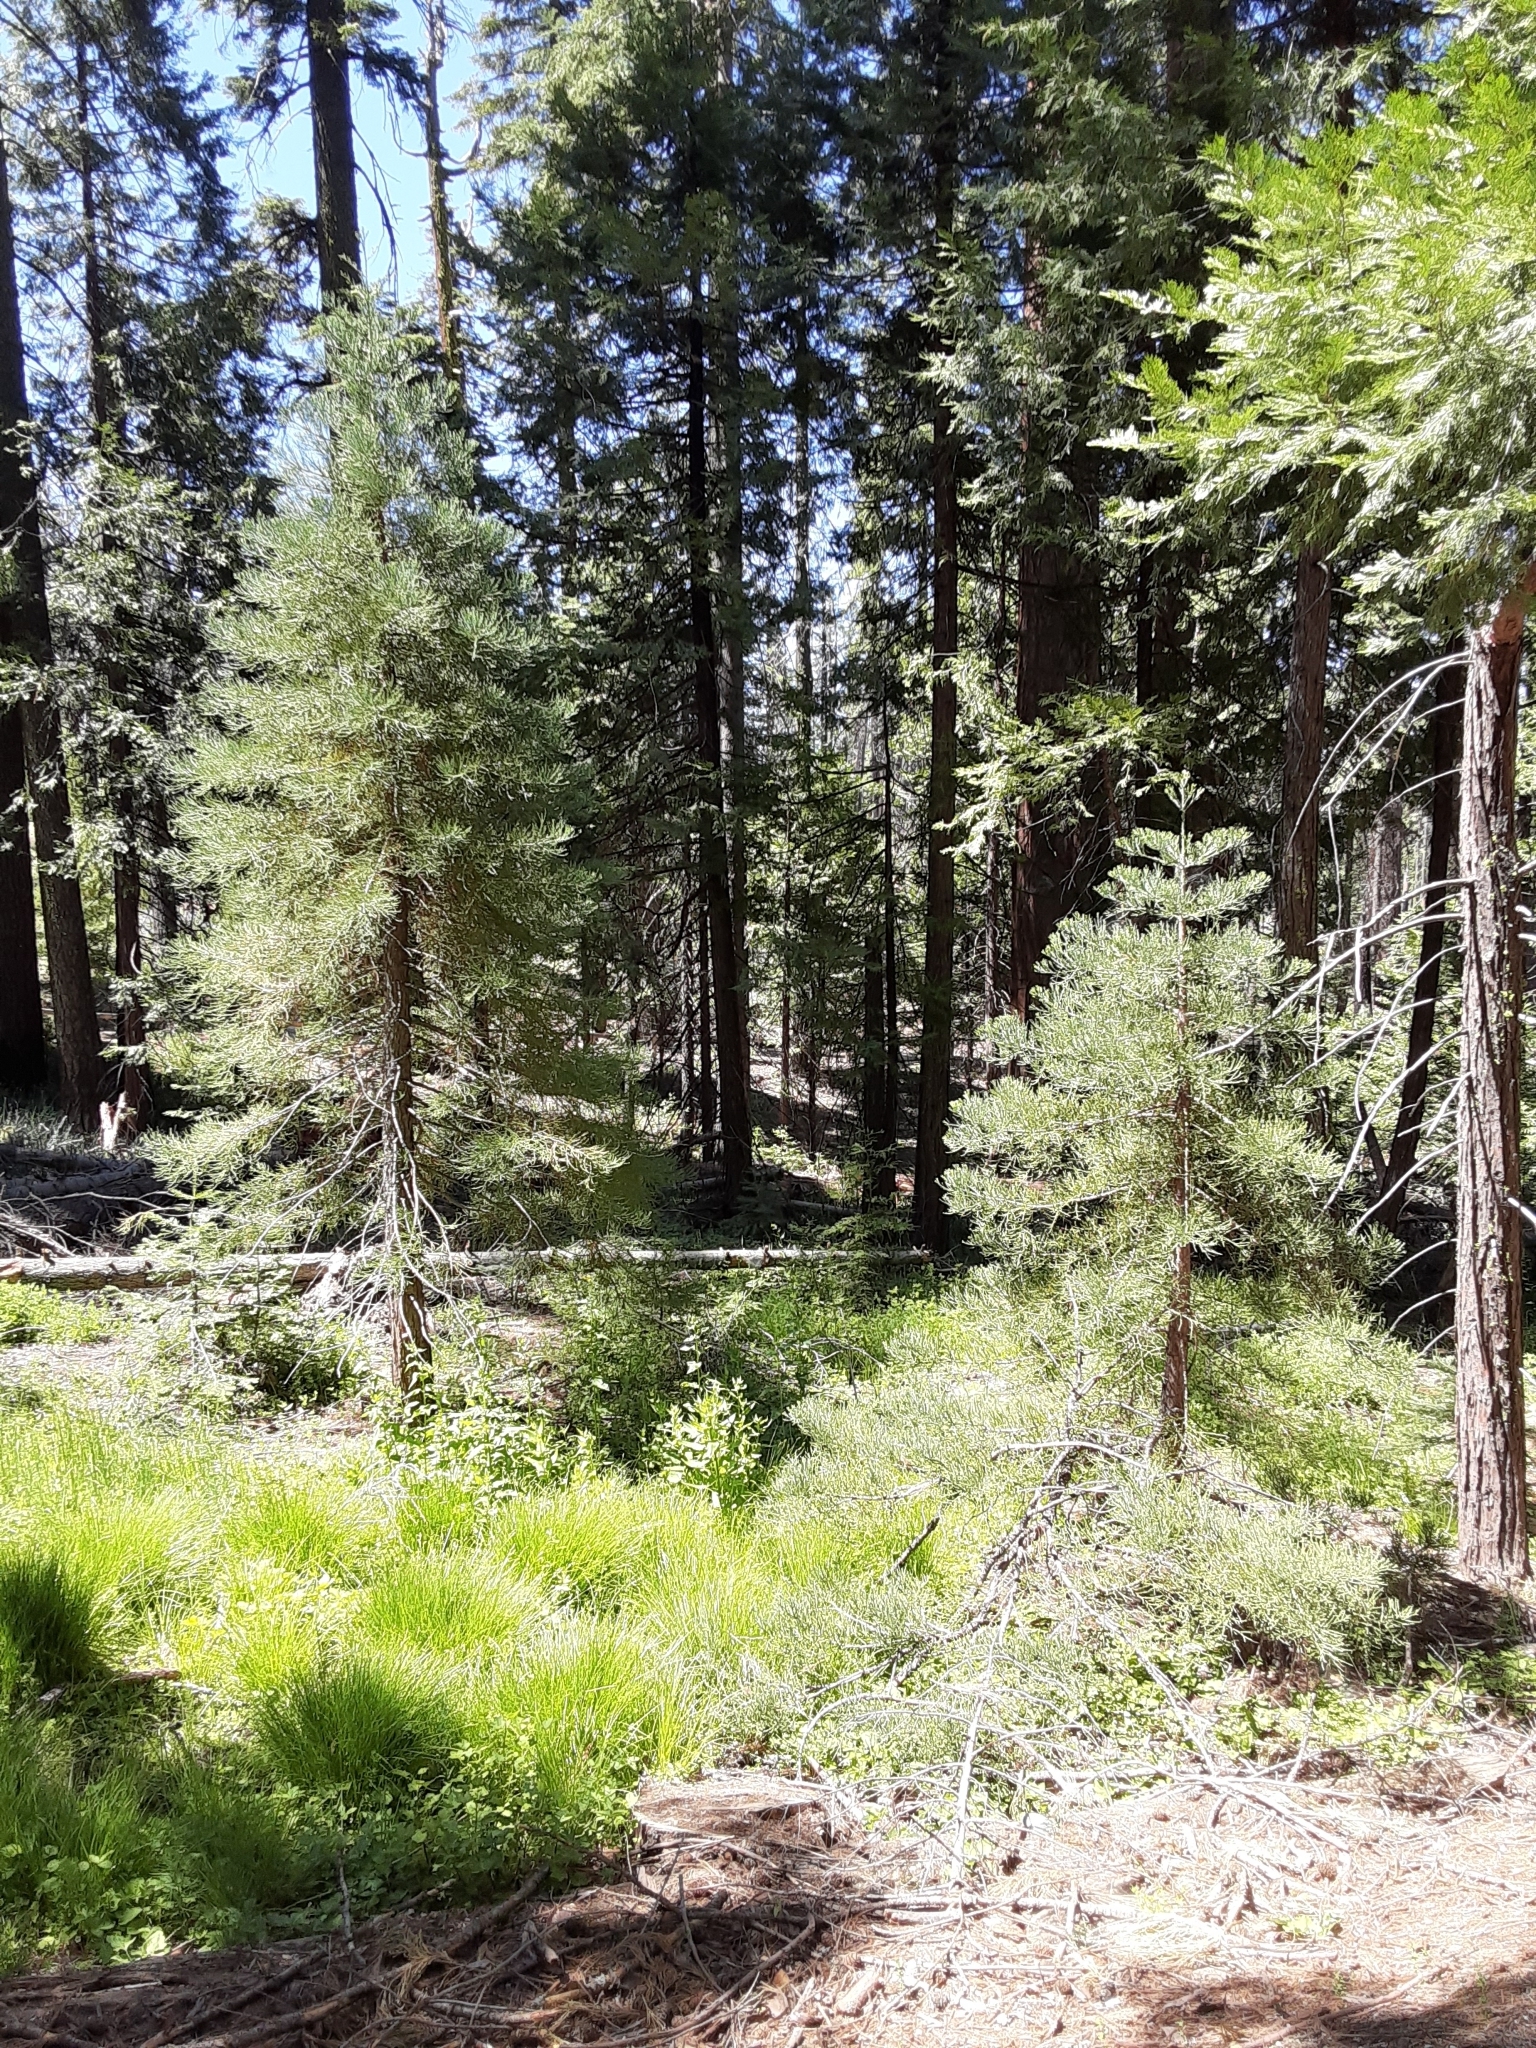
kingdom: Plantae
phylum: Tracheophyta
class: Pinopsida
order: Pinales
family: Cupressaceae
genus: Sequoiadendron
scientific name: Sequoiadendron giganteum
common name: Wellingtonia
